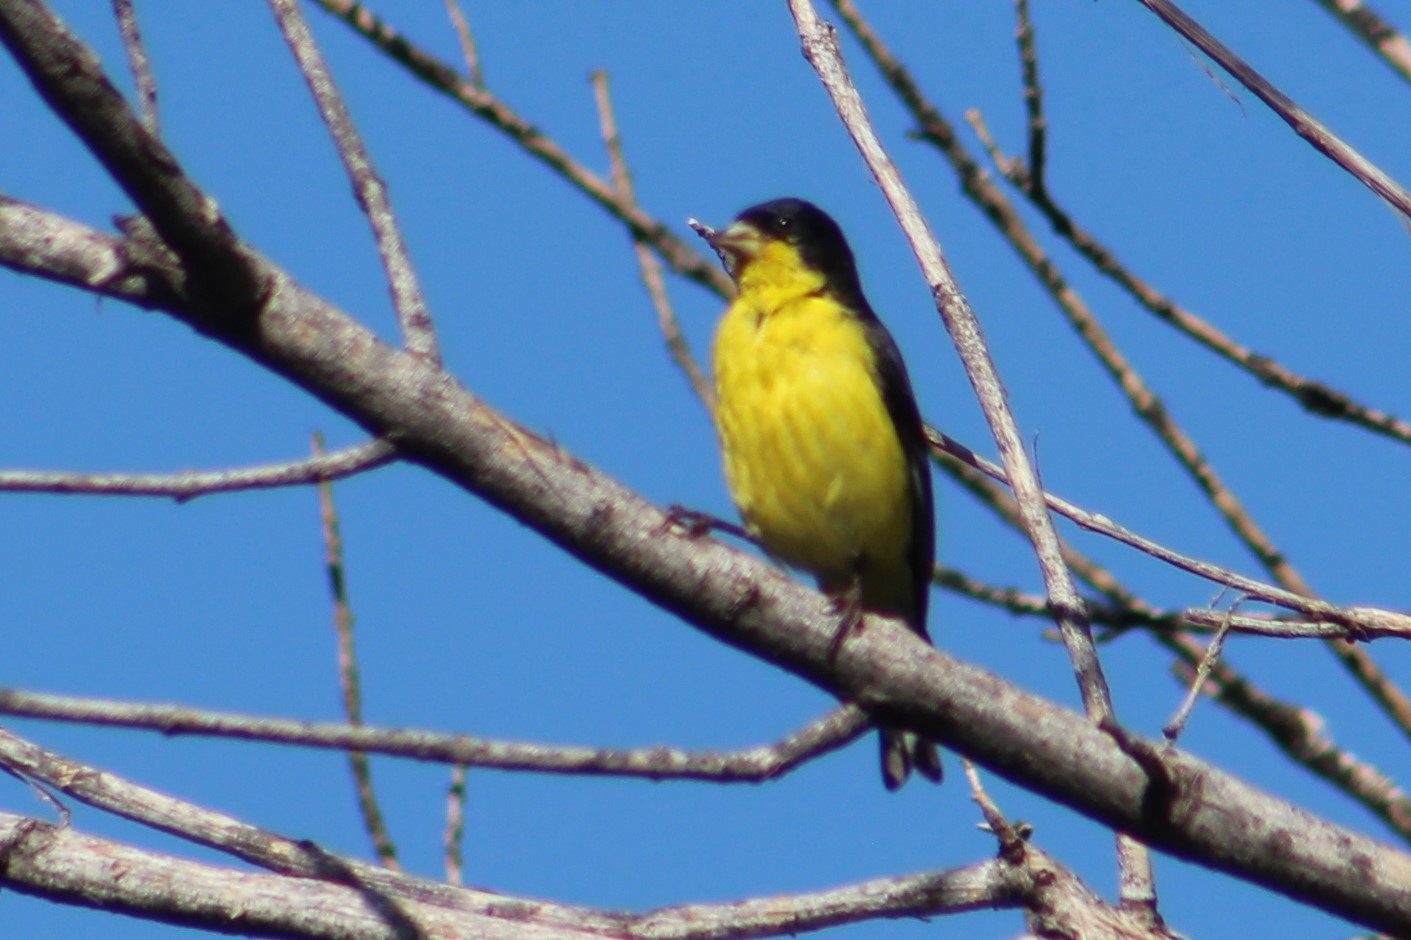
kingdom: Animalia
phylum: Chordata
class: Aves
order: Passeriformes
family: Fringillidae
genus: Spinus
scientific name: Spinus psaltria
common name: Lesser goldfinch
